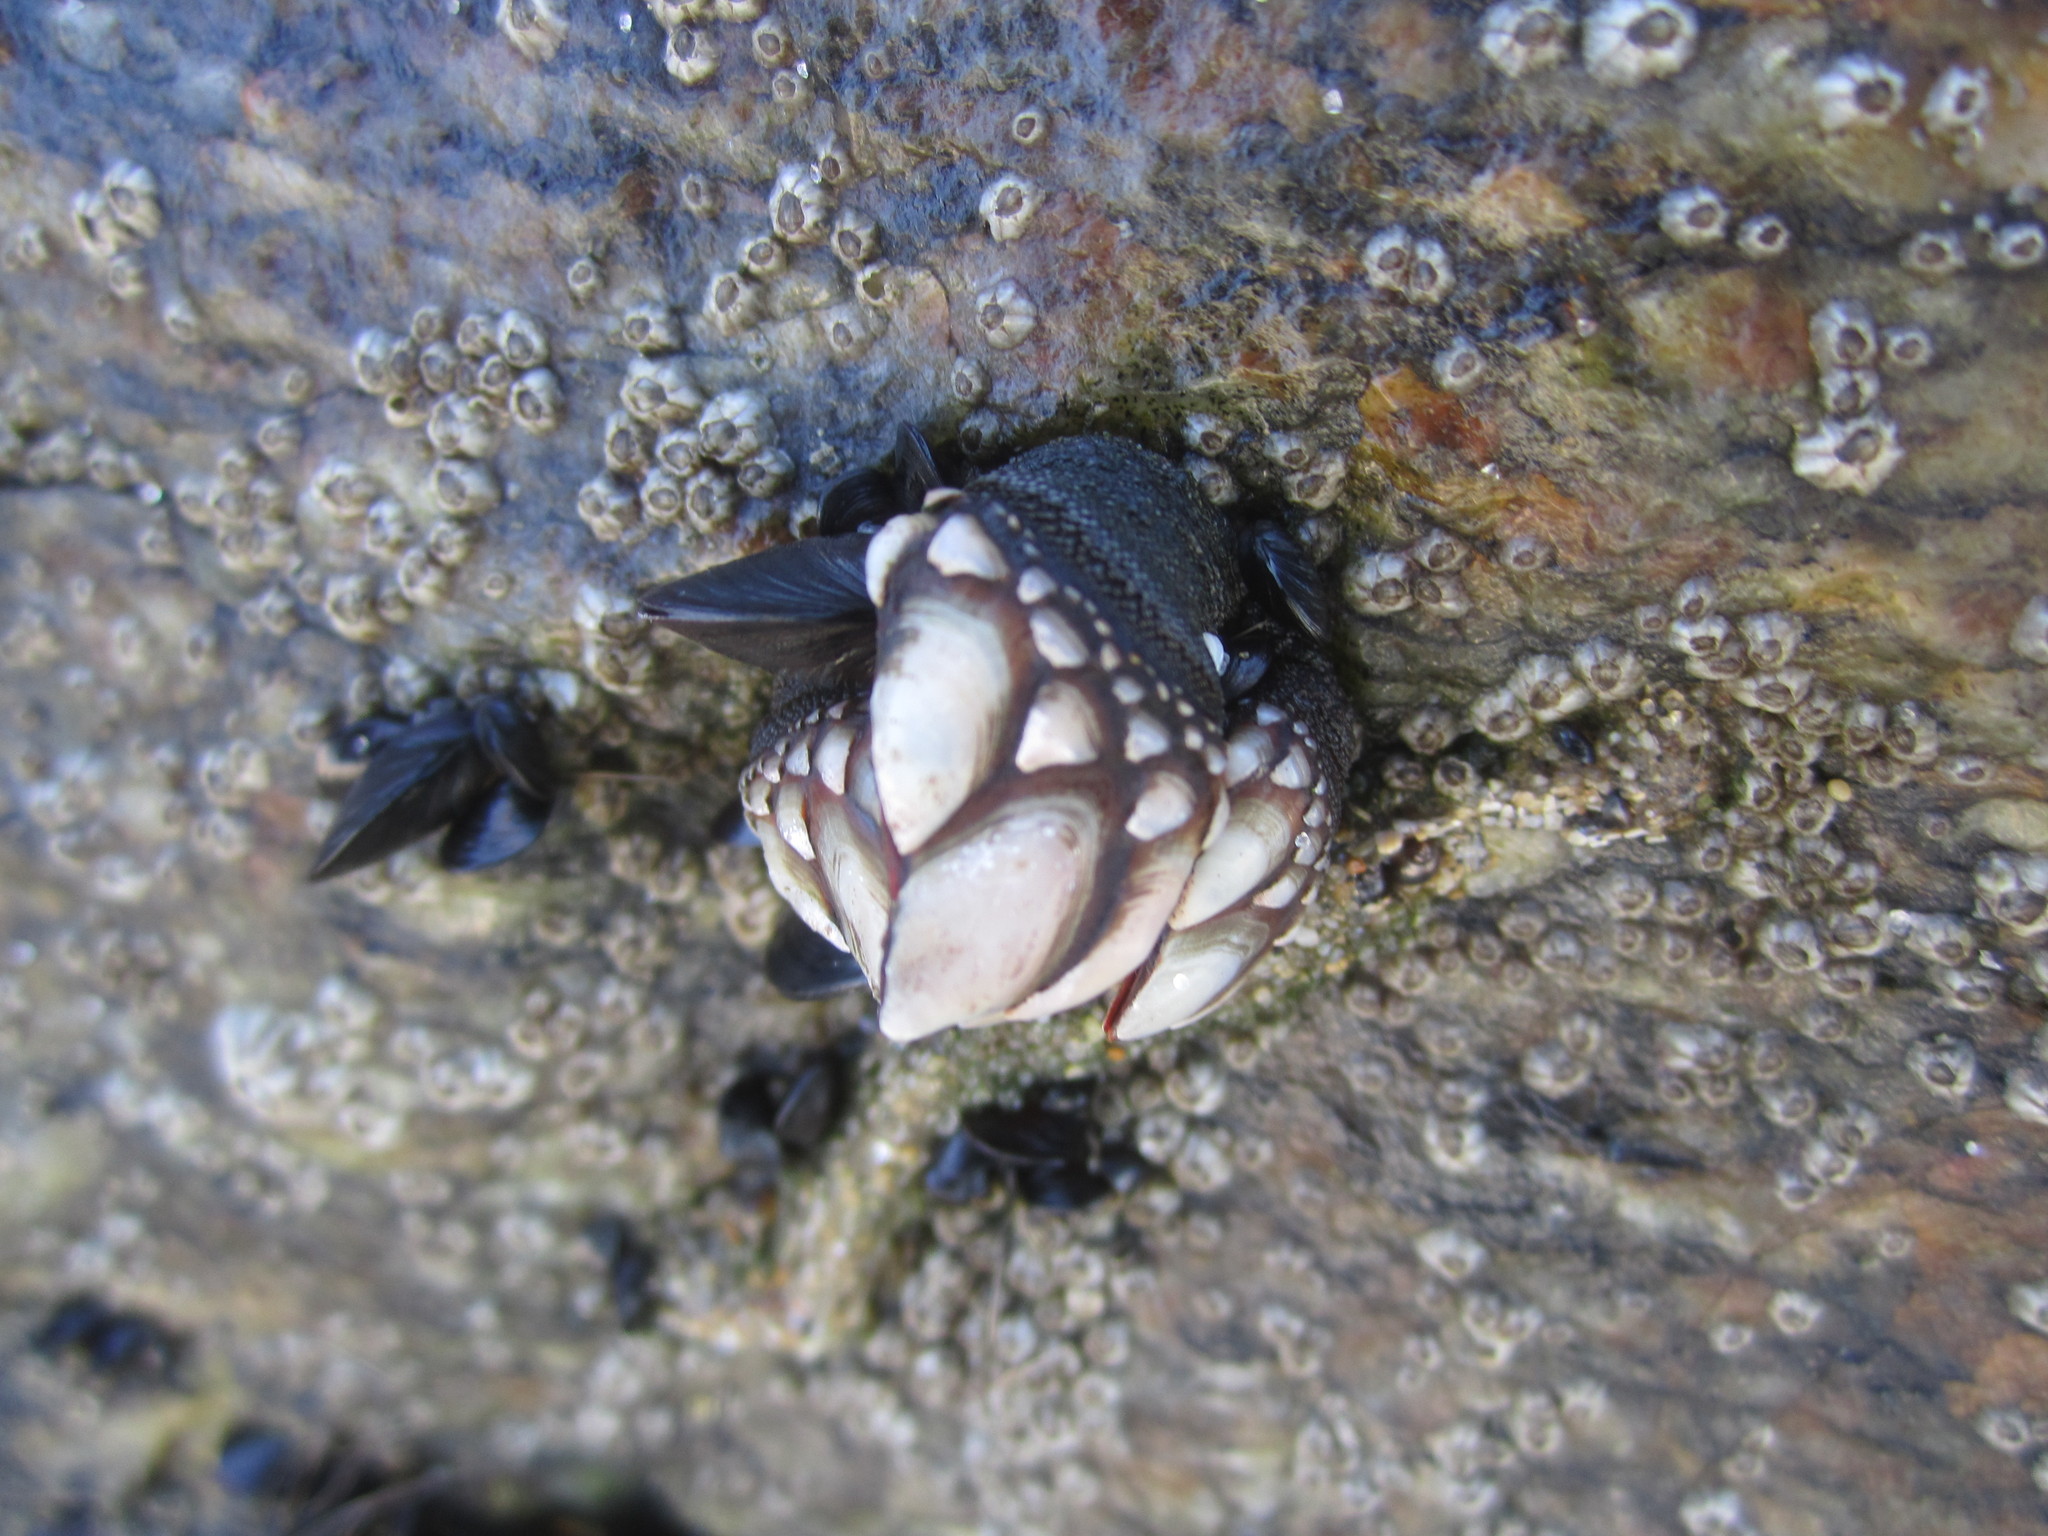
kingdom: Animalia
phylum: Arthropoda
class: Maxillopoda
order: Pedunculata
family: Pollicipedidae
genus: Pollicipes
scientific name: Pollicipes pollicipes
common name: Gooseneck barnacle
